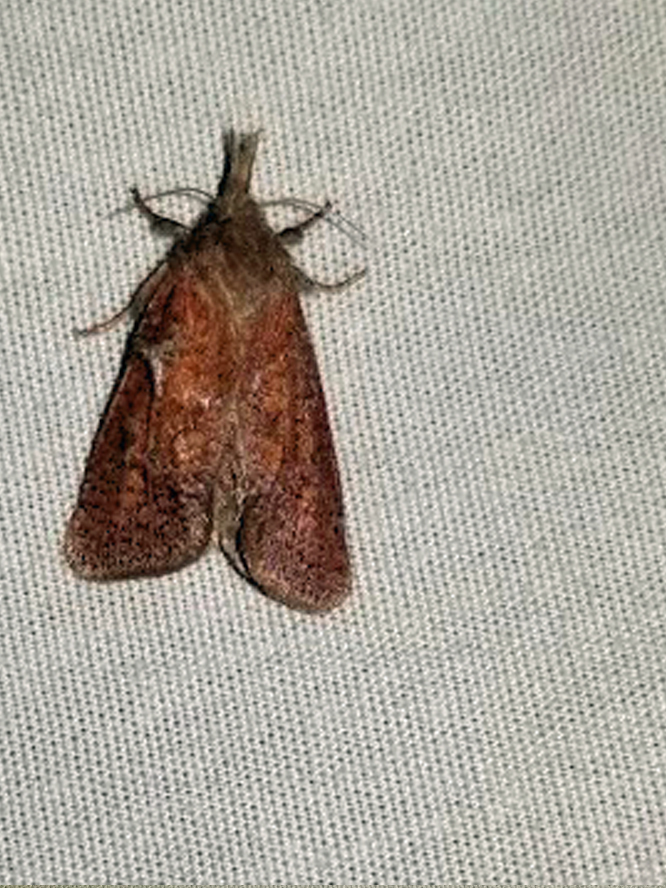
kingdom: Animalia
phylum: Arthropoda
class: Insecta
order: Lepidoptera
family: Tineidae
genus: Acrolophus
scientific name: Acrolophus plumifrontella
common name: Eastern grass tubeworm moth
